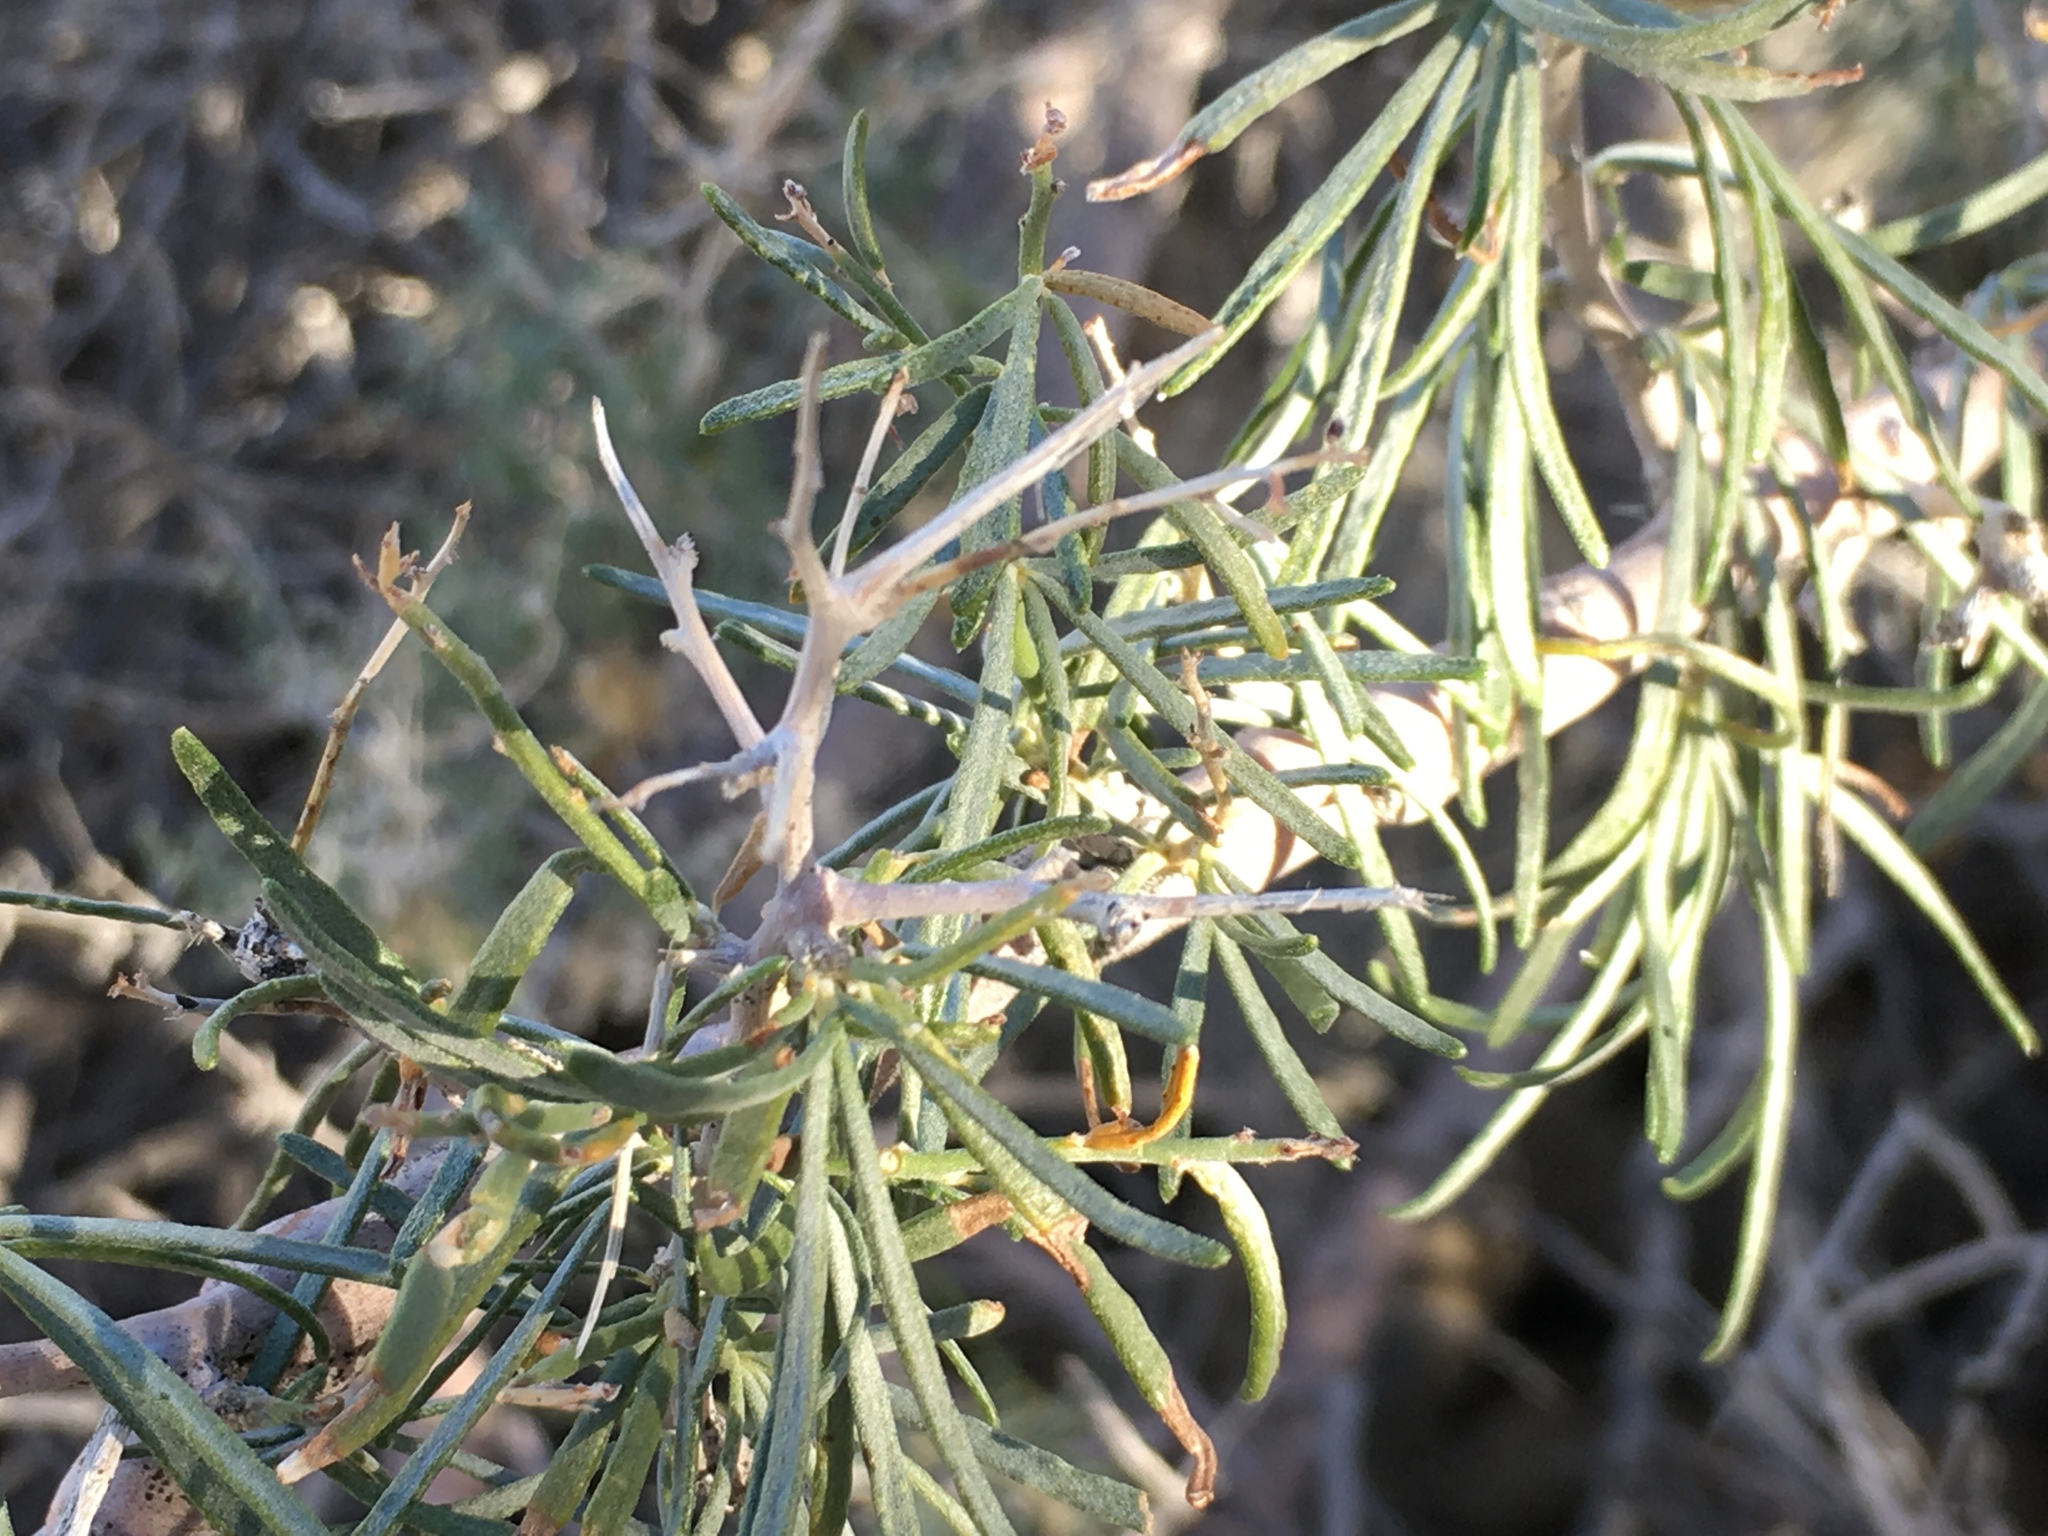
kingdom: Plantae
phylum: Tracheophyta
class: Magnoliopsida
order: Fabales
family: Fabaceae
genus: Psorothamnus
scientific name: Psorothamnus schottii
